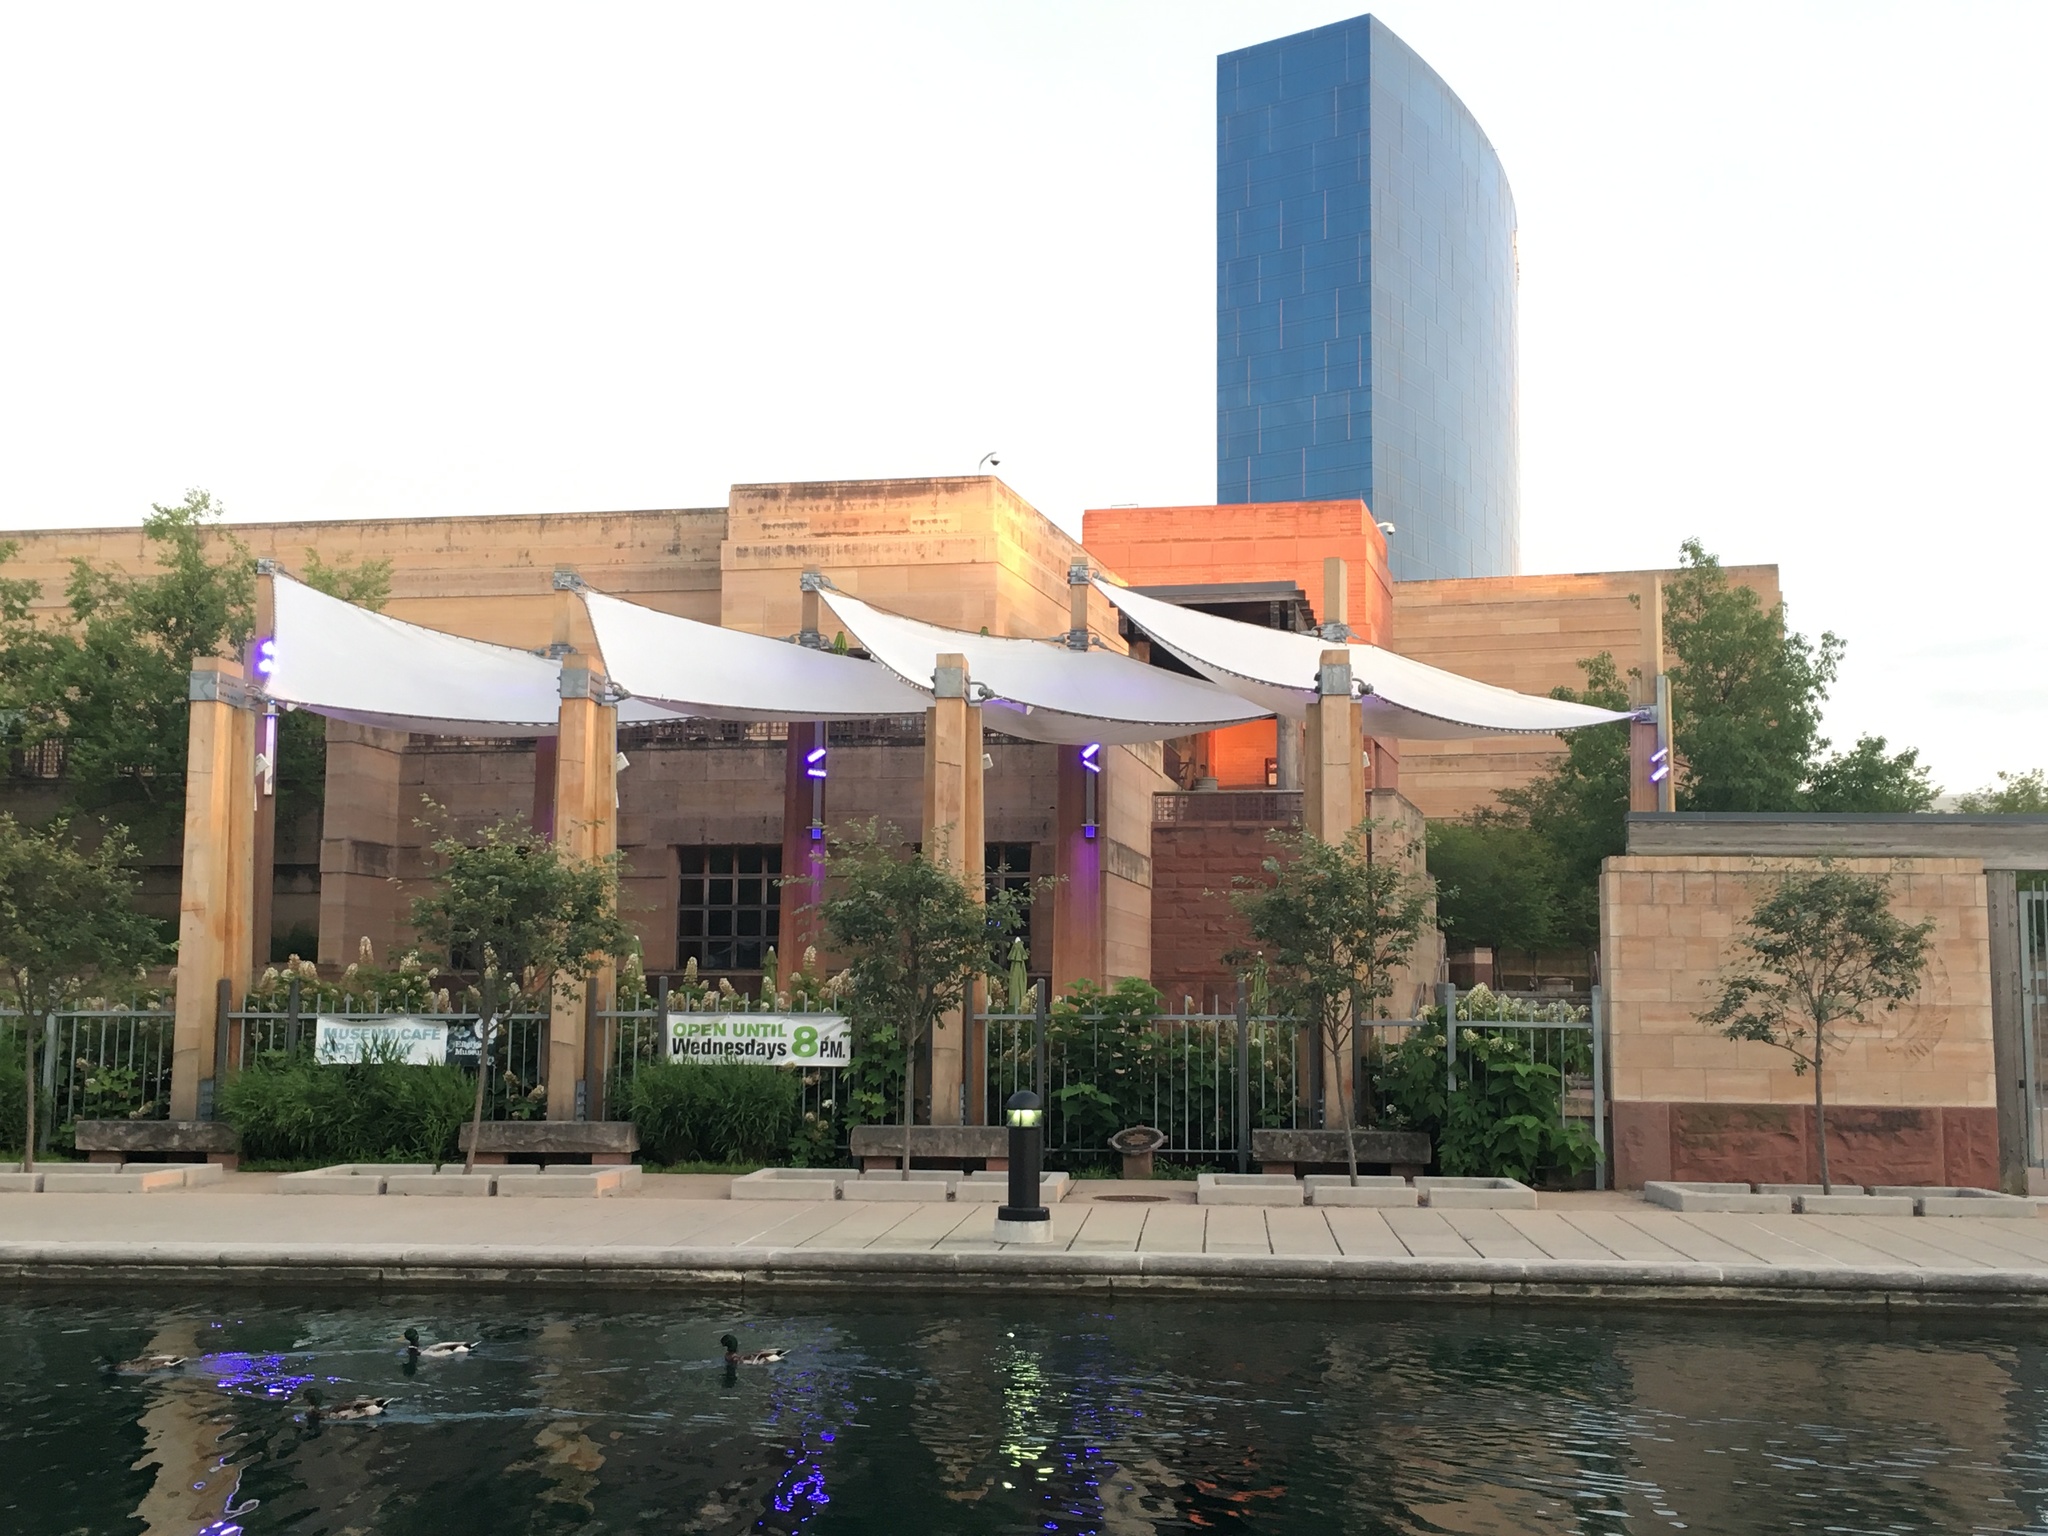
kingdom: Animalia
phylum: Chordata
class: Aves
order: Anseriformes
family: Anatidae
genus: Anas
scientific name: Anas platyrhynchos
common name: Mallard
